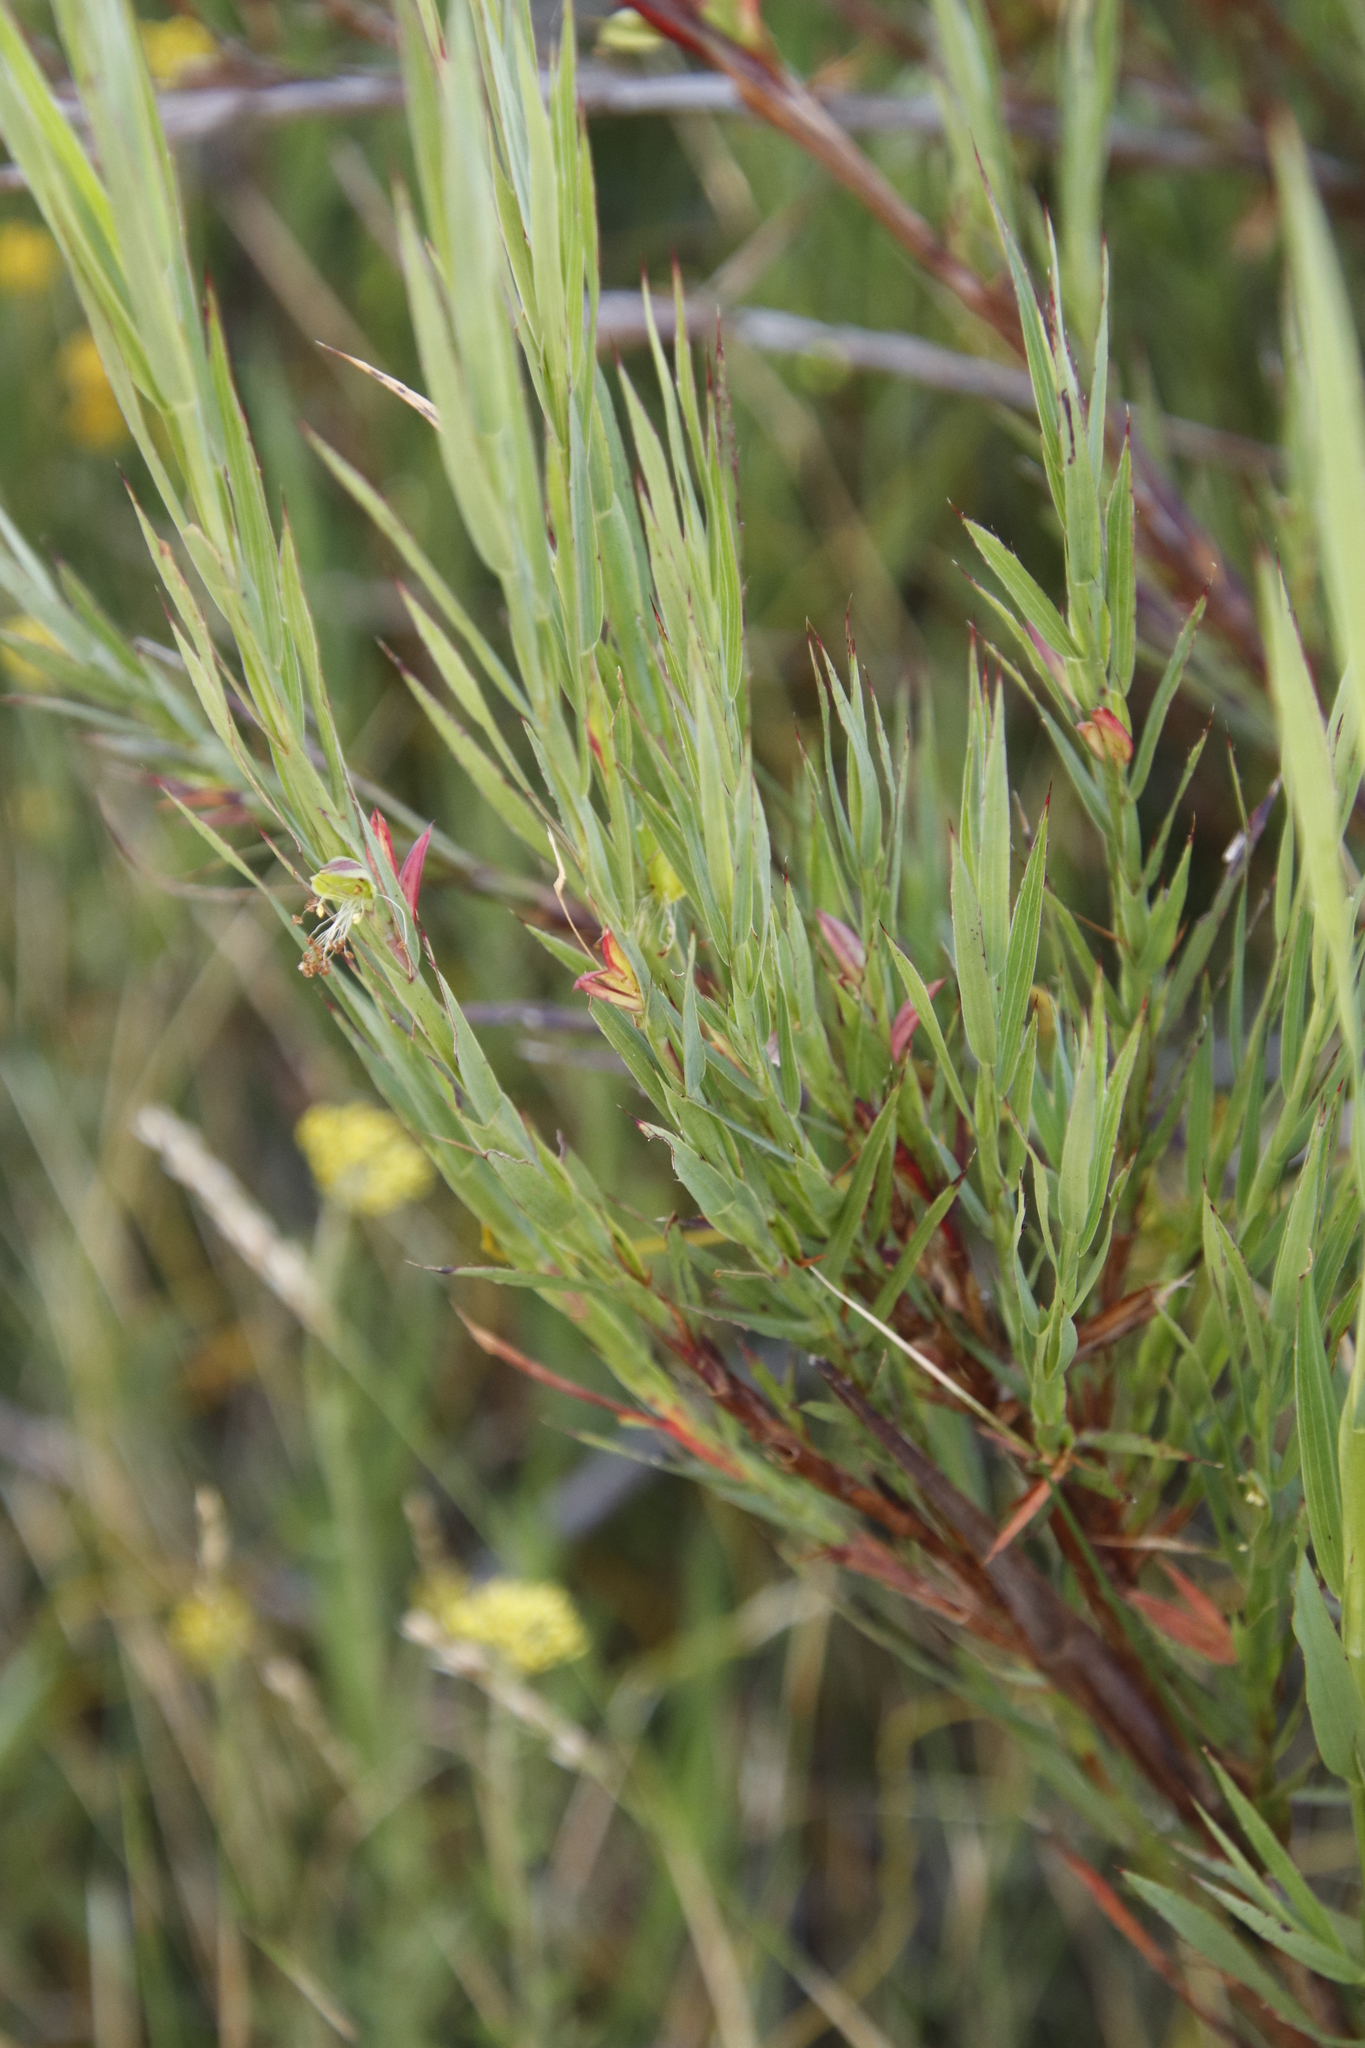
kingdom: Plantae
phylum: Tracheophyta
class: Magnoliopsida
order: Rosales
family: Rosaceae
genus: Cliffortia
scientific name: Cliffortia graminea
